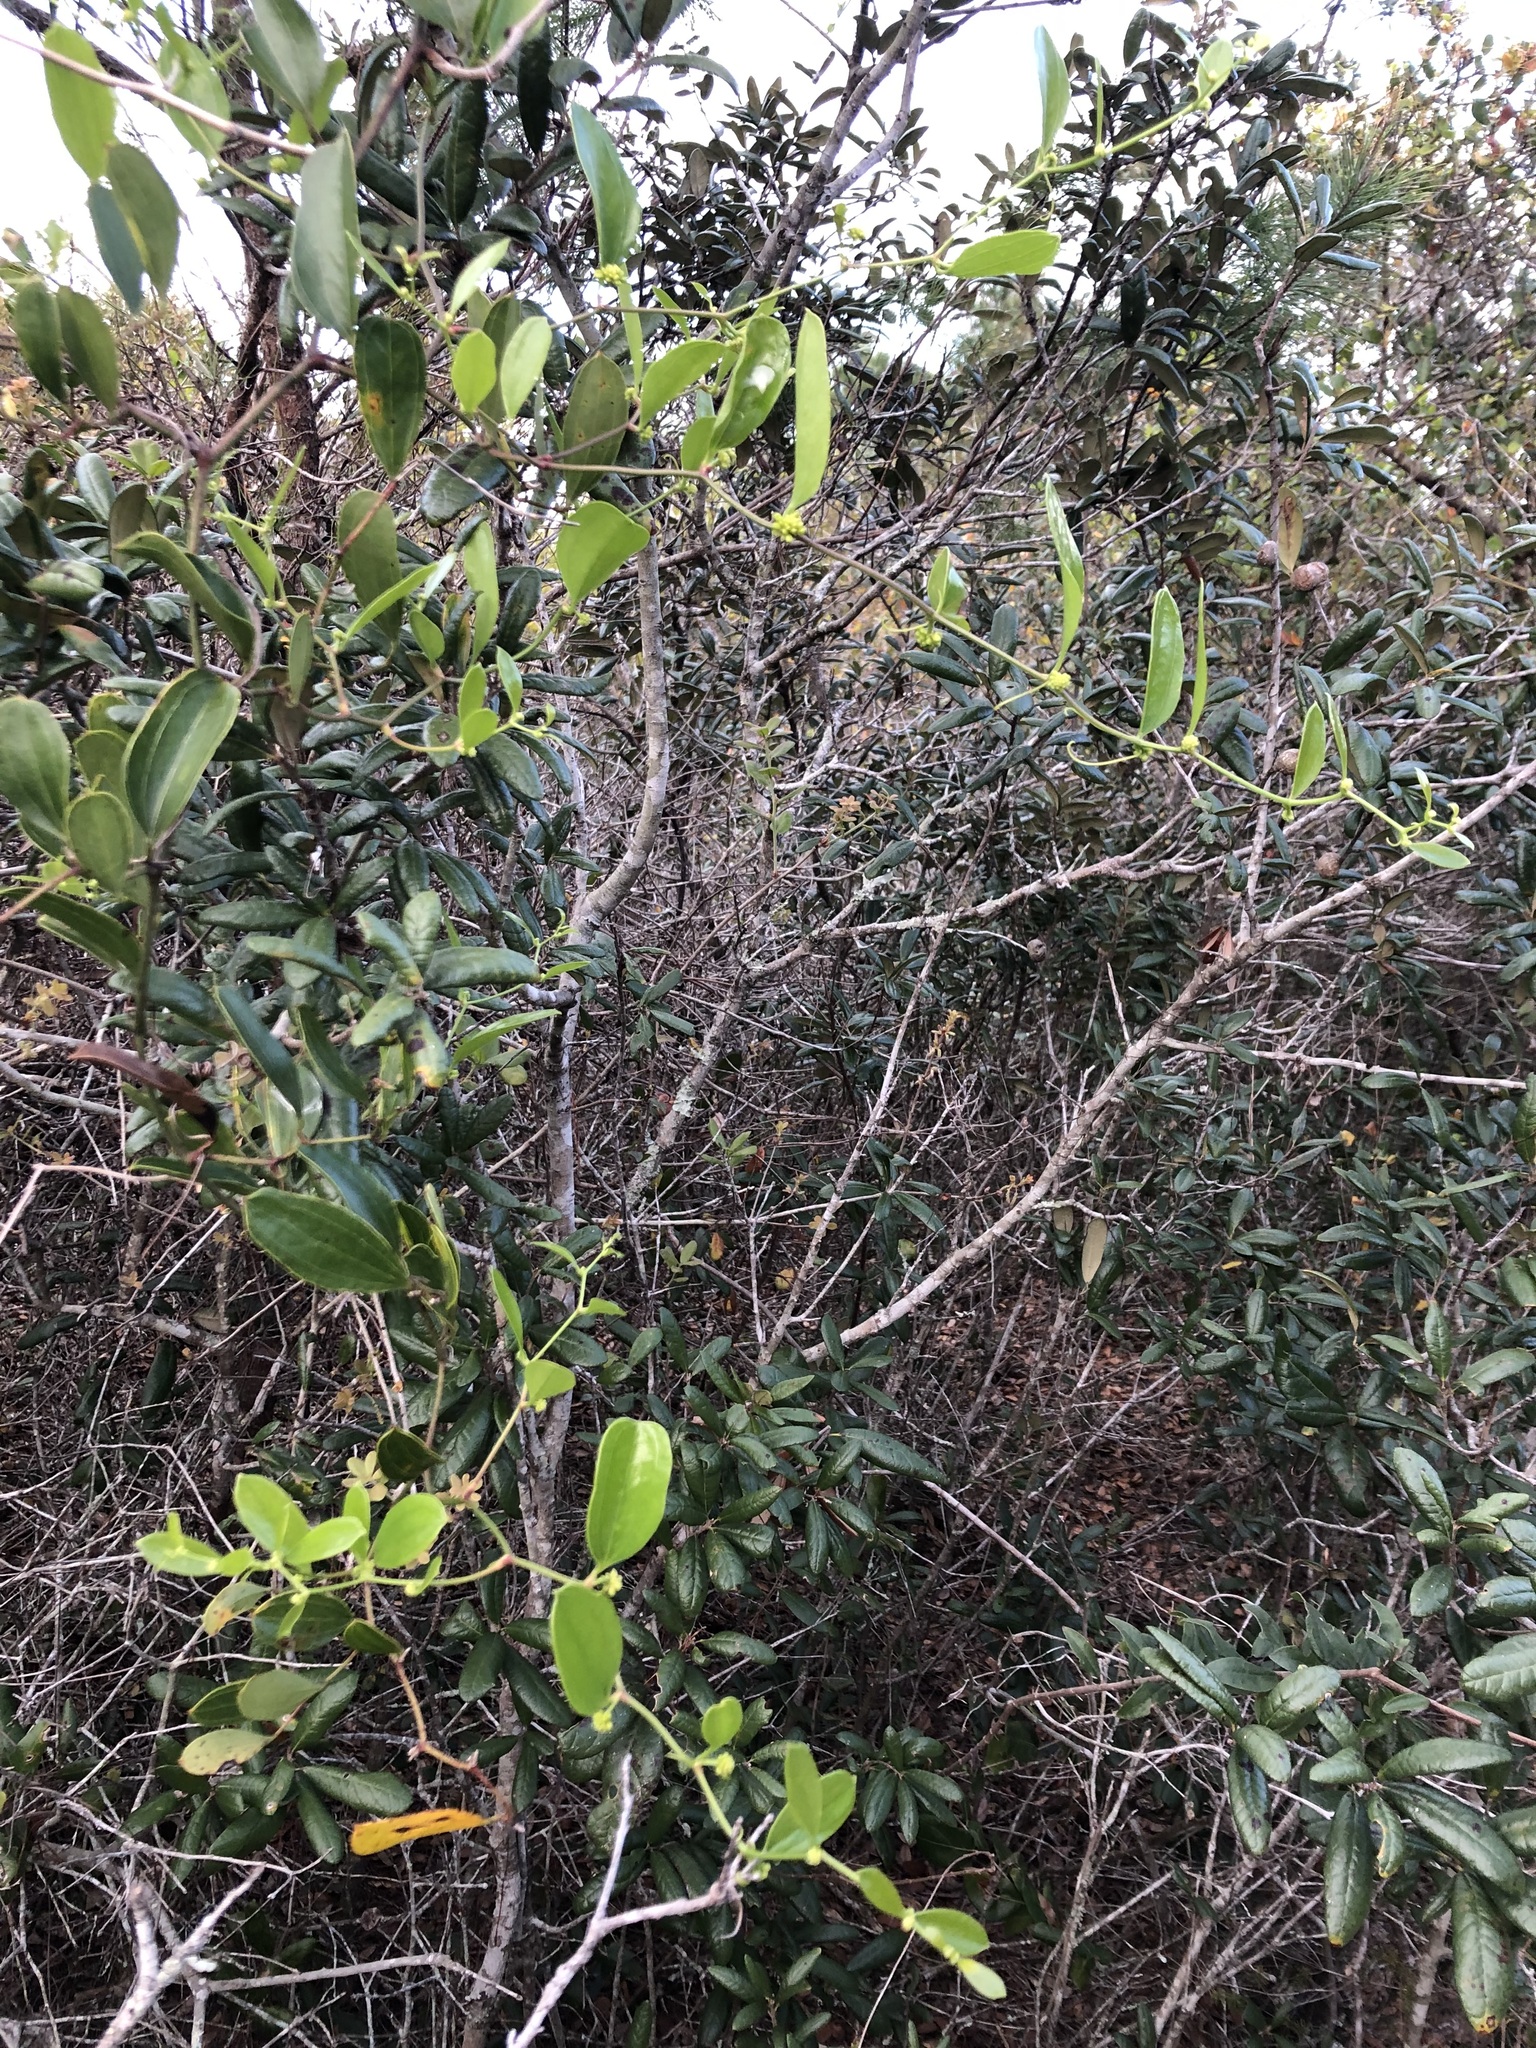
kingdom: Plantae
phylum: Tracheophyta
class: Liliopsida
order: Liliales
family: Smilacaceae
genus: Smilax
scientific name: Smilax auriculata
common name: Wild bamboo
